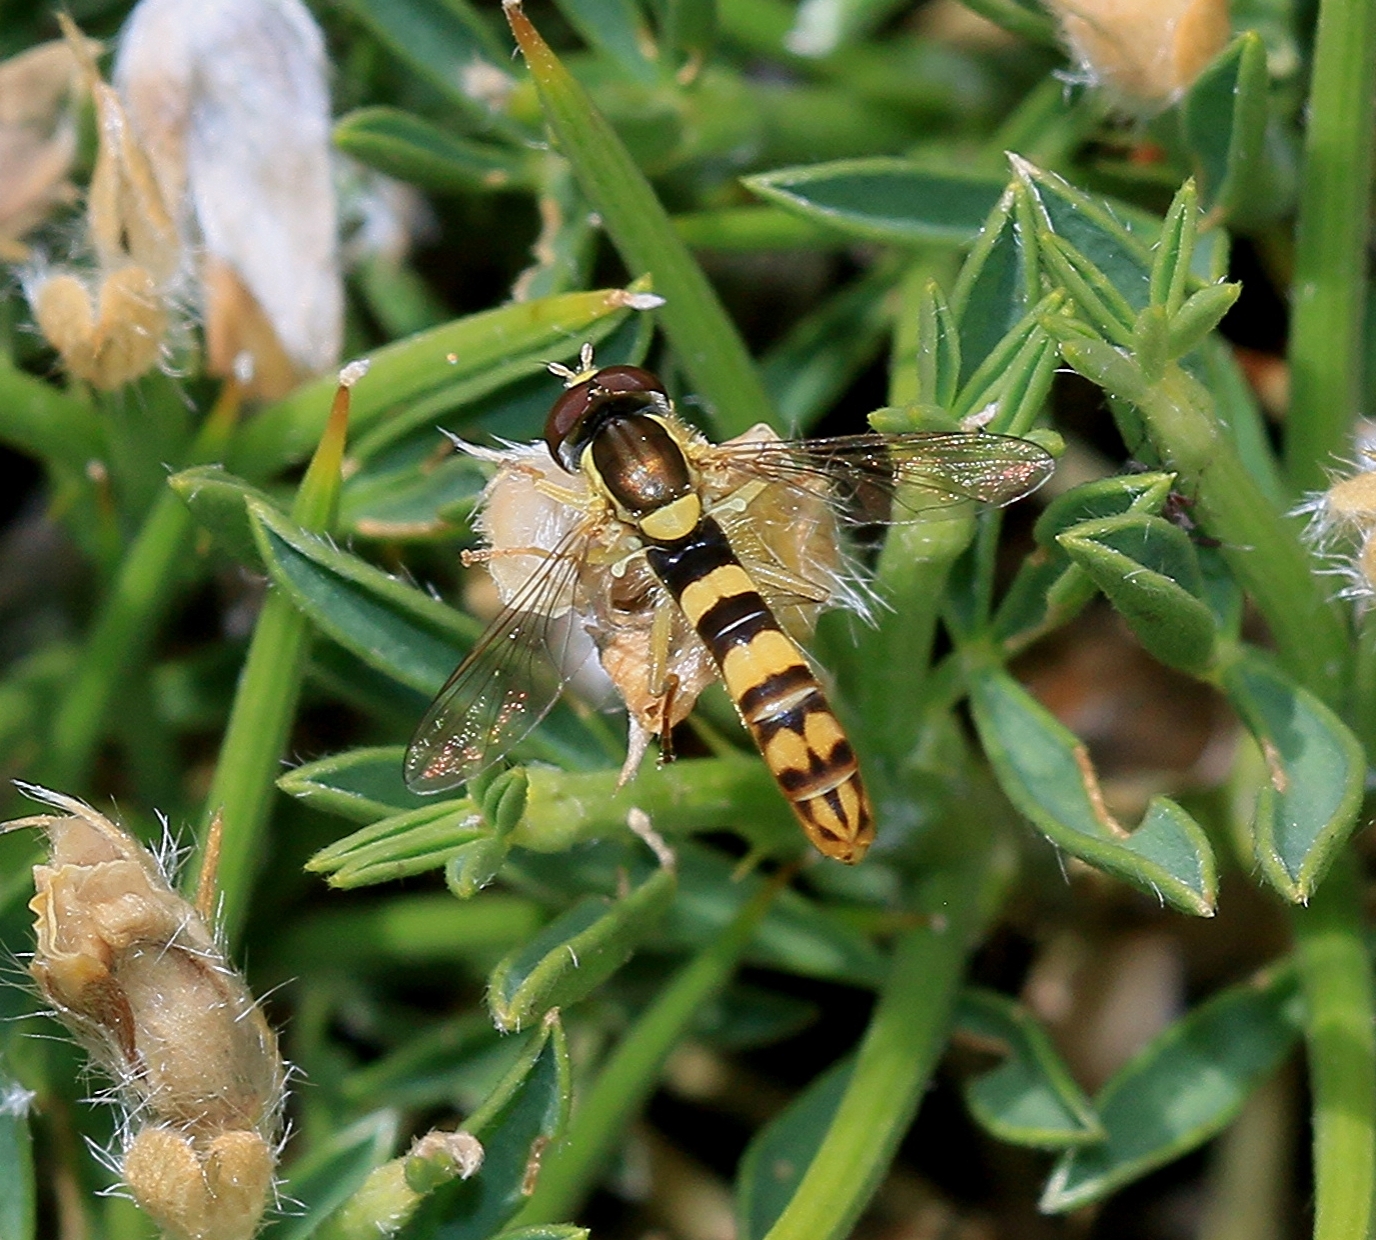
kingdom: Animalia
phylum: Arthropoda
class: Insecta
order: Diptera
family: Syrphidae
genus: Sphaerophoria
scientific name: Sphaerophoria scripta
